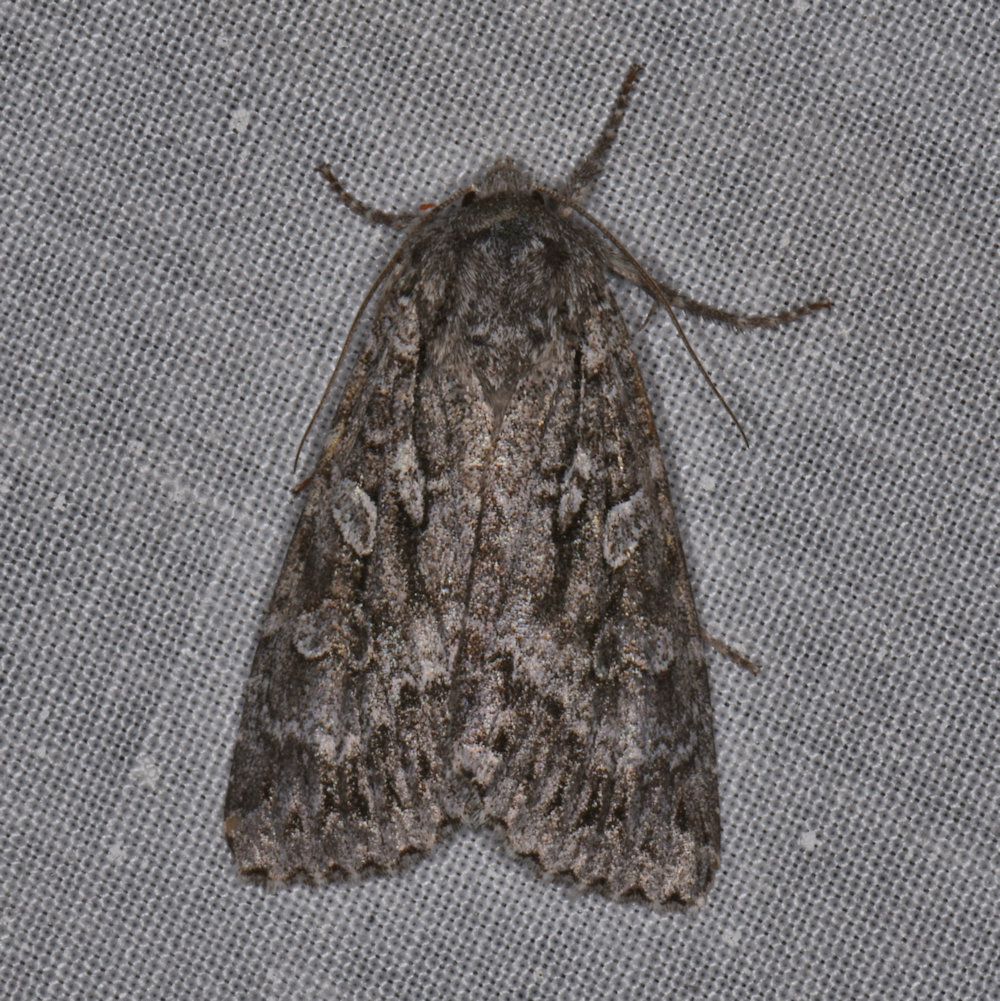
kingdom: Animalia
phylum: Arthropoda
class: Insecta
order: Lepidoptera
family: Noctuidae
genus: Eurois
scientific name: Eurois occulta
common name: Great brocade
